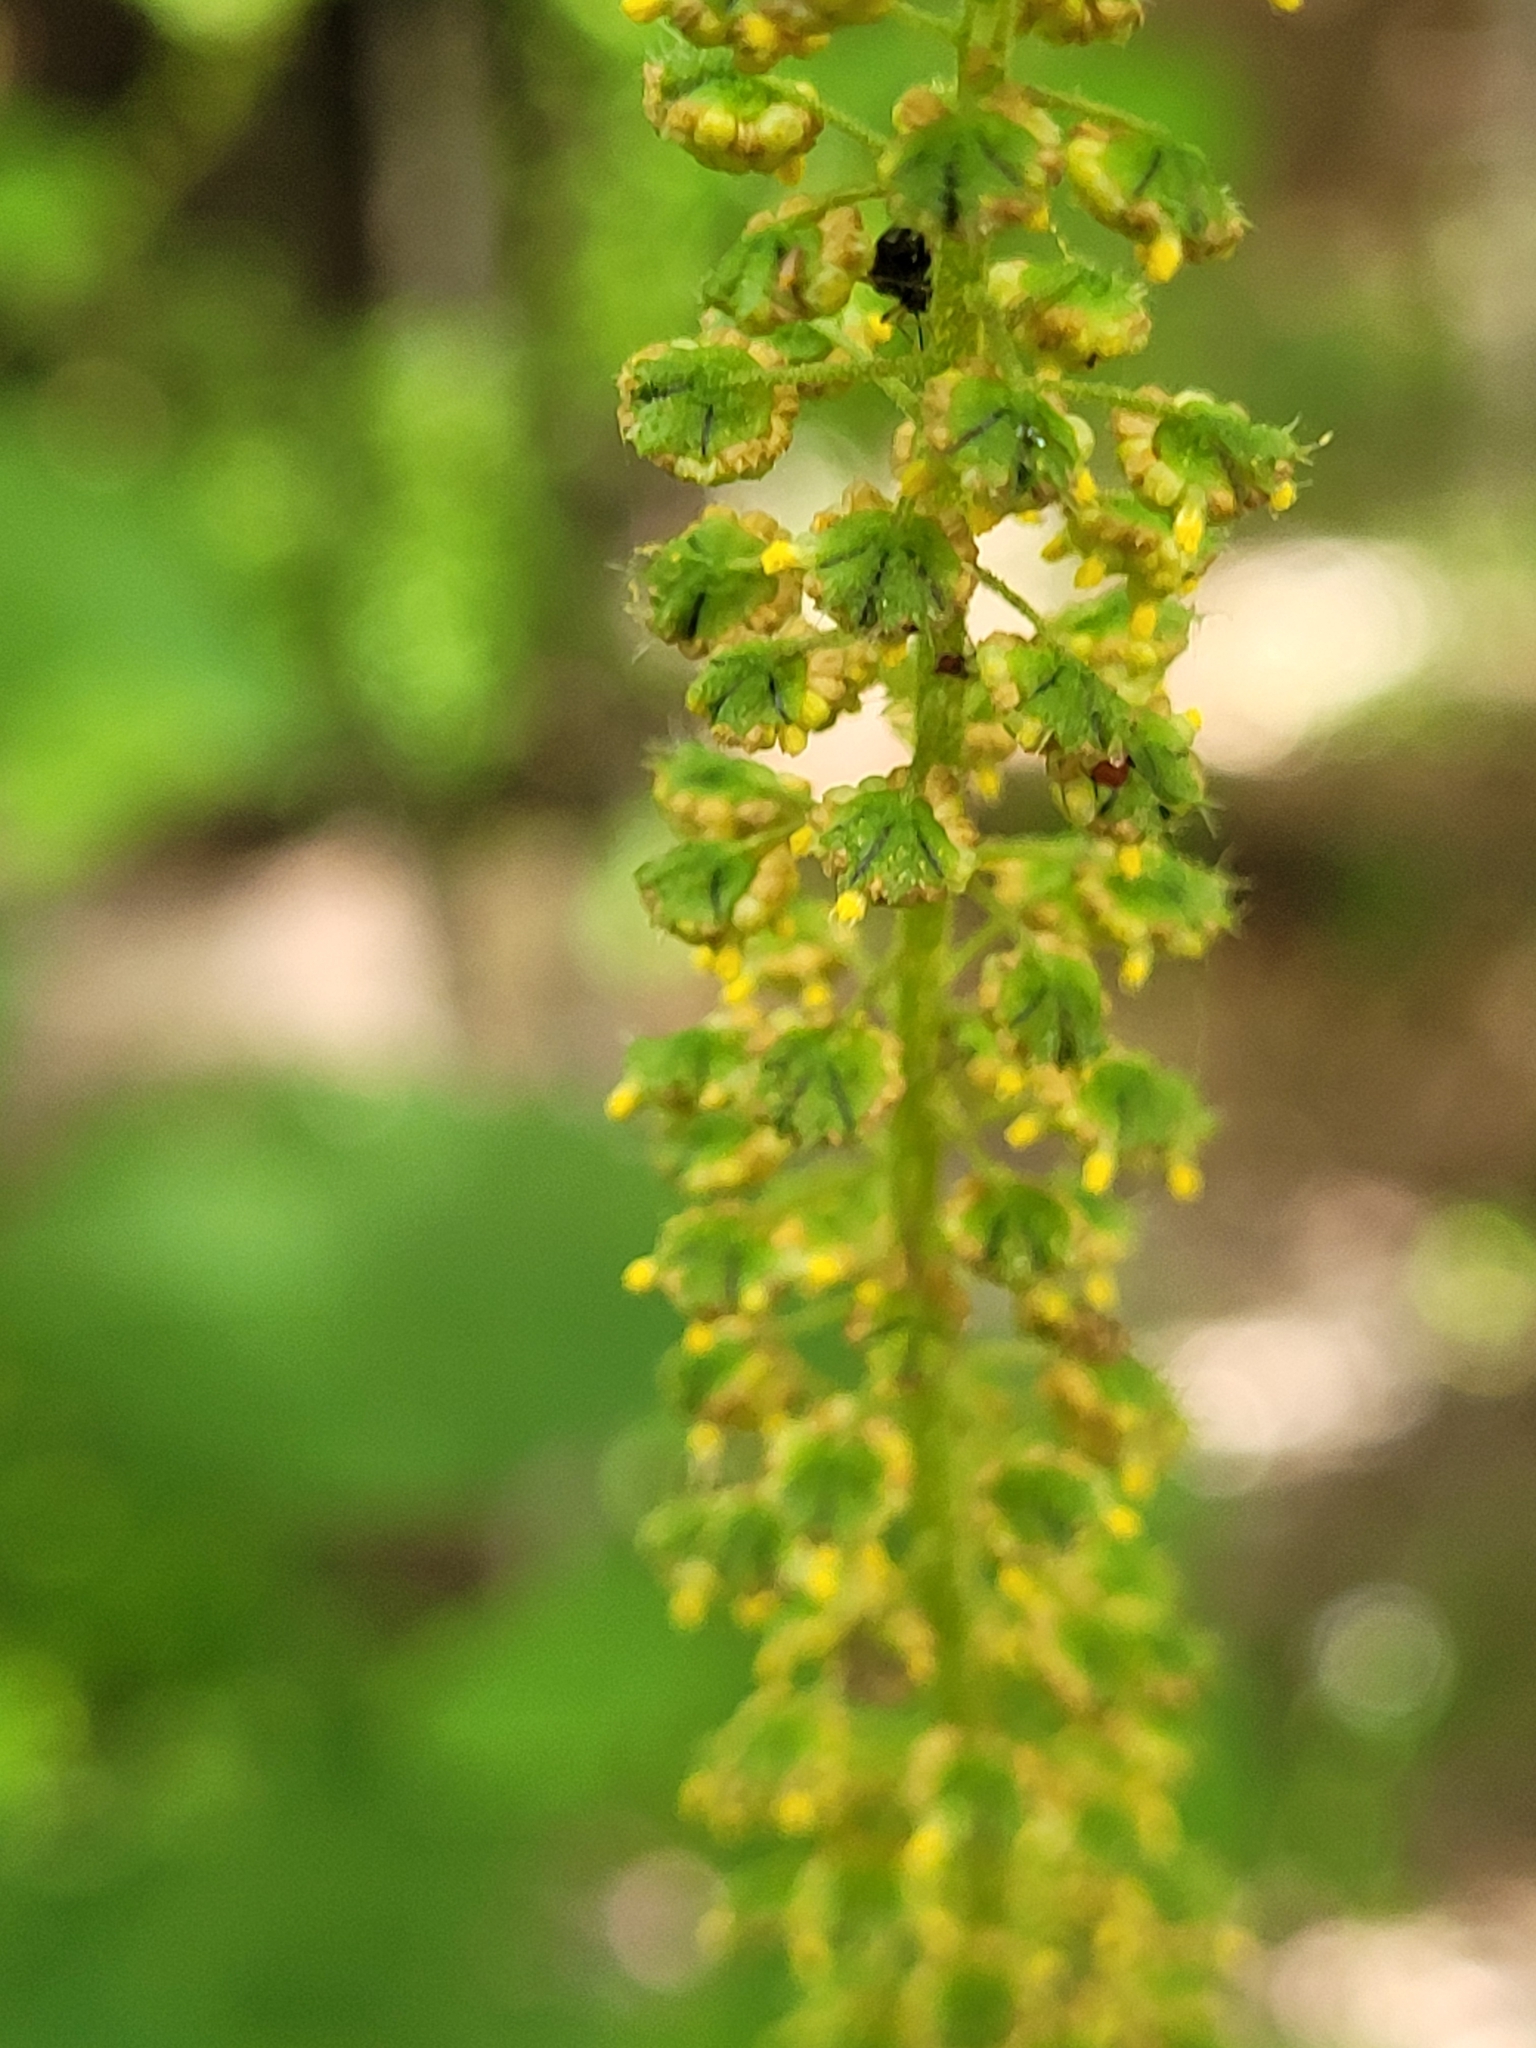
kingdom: Plantae
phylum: Tracheophyta
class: Magnoliopsida
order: Asterales
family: Asteraceae
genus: Ambrosia
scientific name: Ambrosia trifida
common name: Giant ragweed
